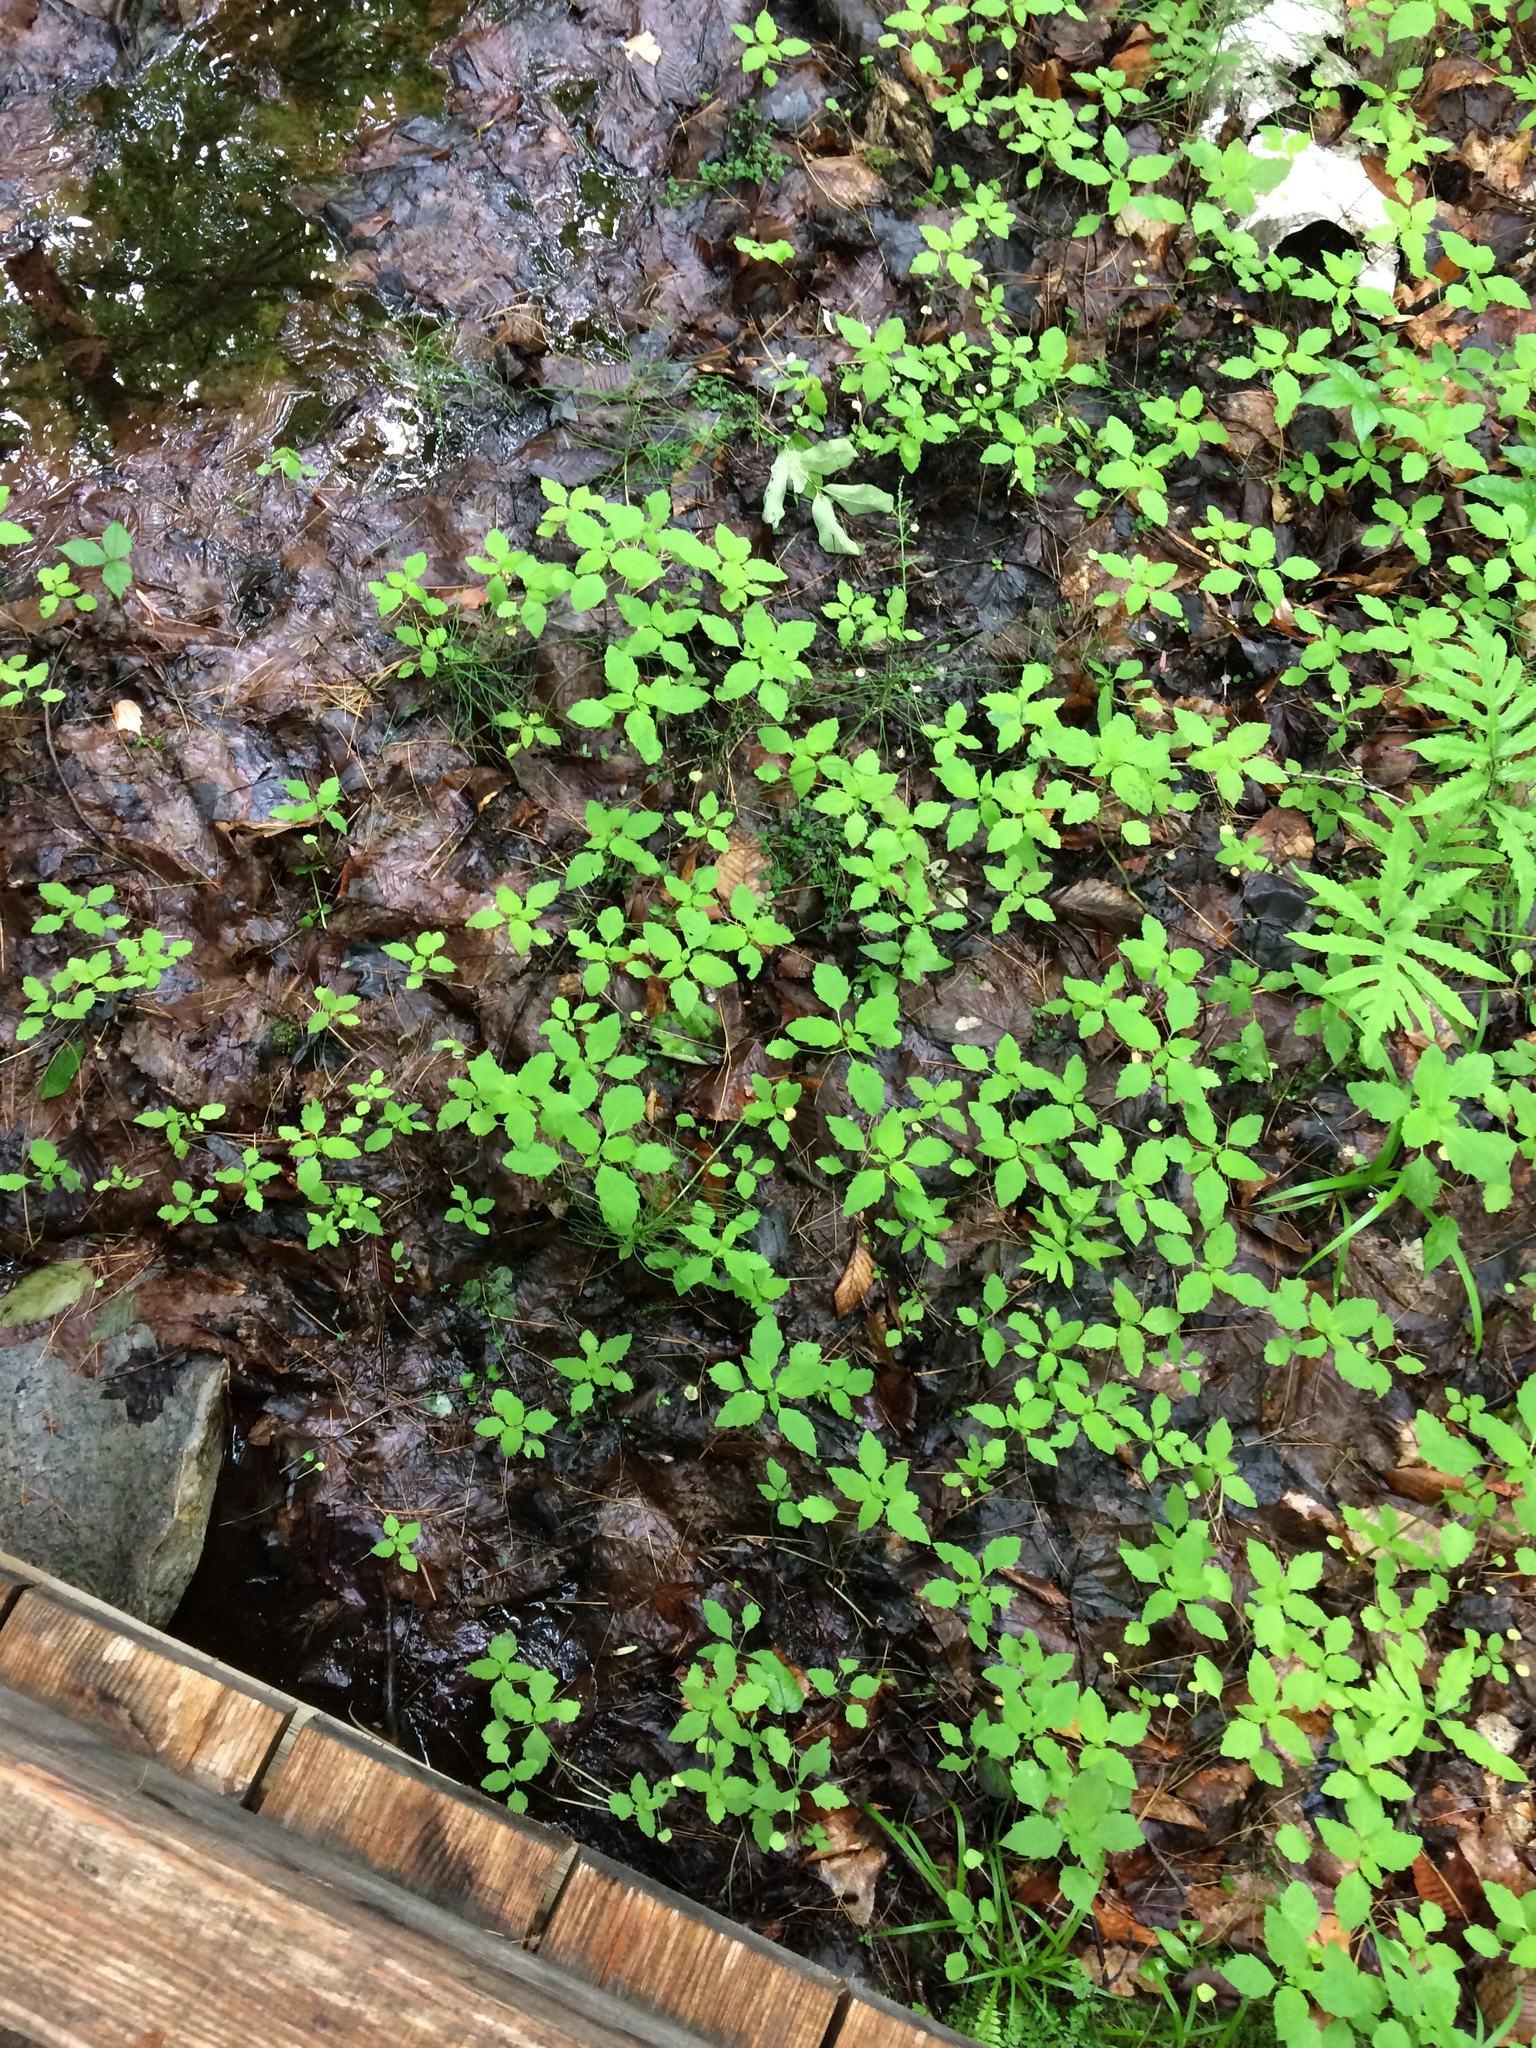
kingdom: Plantae
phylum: Tracheophyta
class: Magnoliopsida
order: Ericales
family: Balsaminaceae
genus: Impatiens
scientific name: Impatiens capensis
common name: Orange balsam
